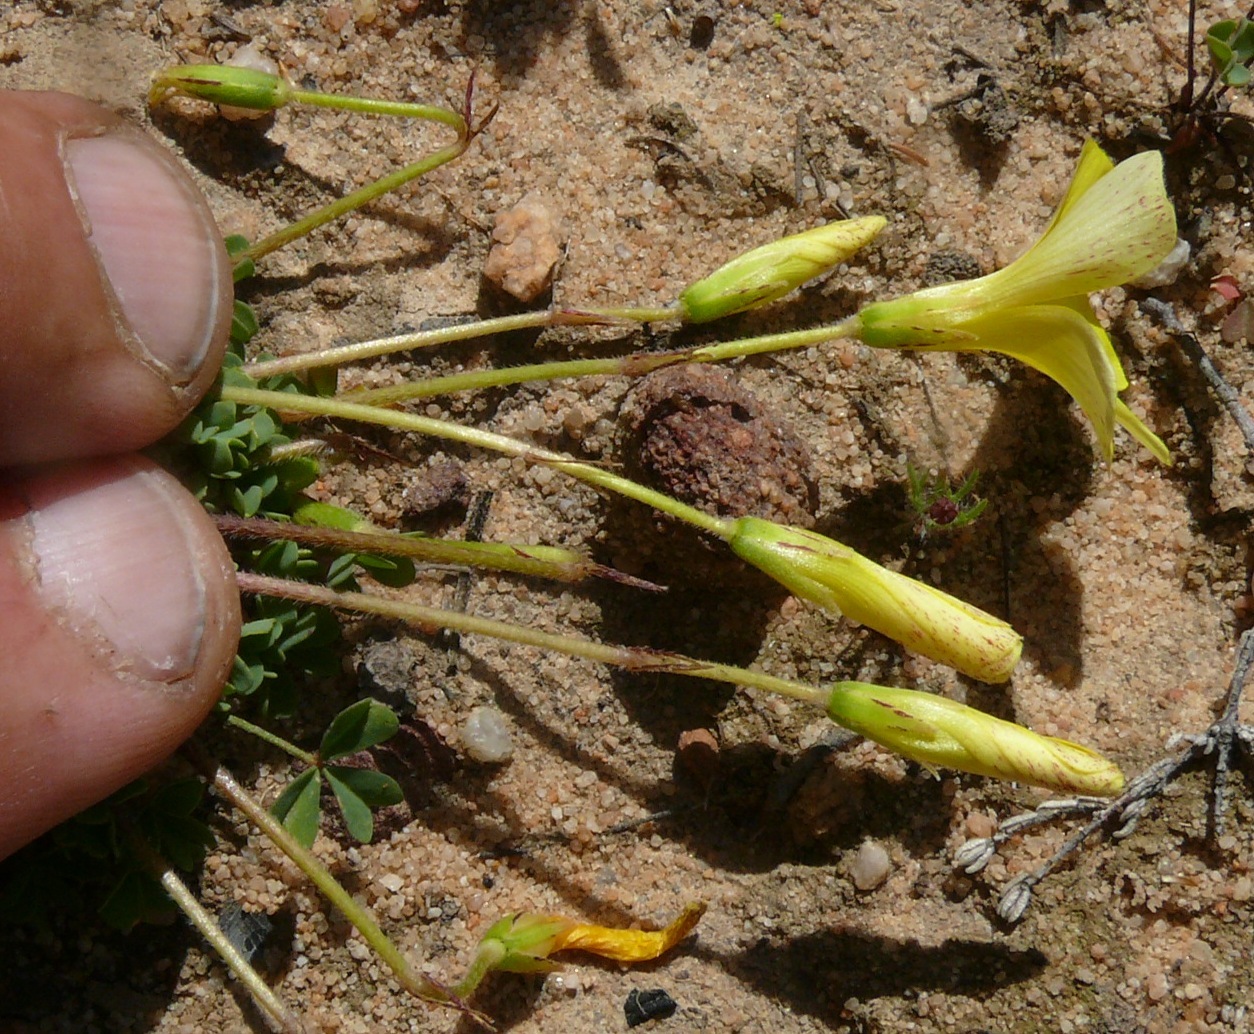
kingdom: Plantae
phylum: Tracheophyta
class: Magnoliopsida
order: Oxalidales
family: Oxalidaceae
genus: Oxalis
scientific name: Oxalis obtusa
